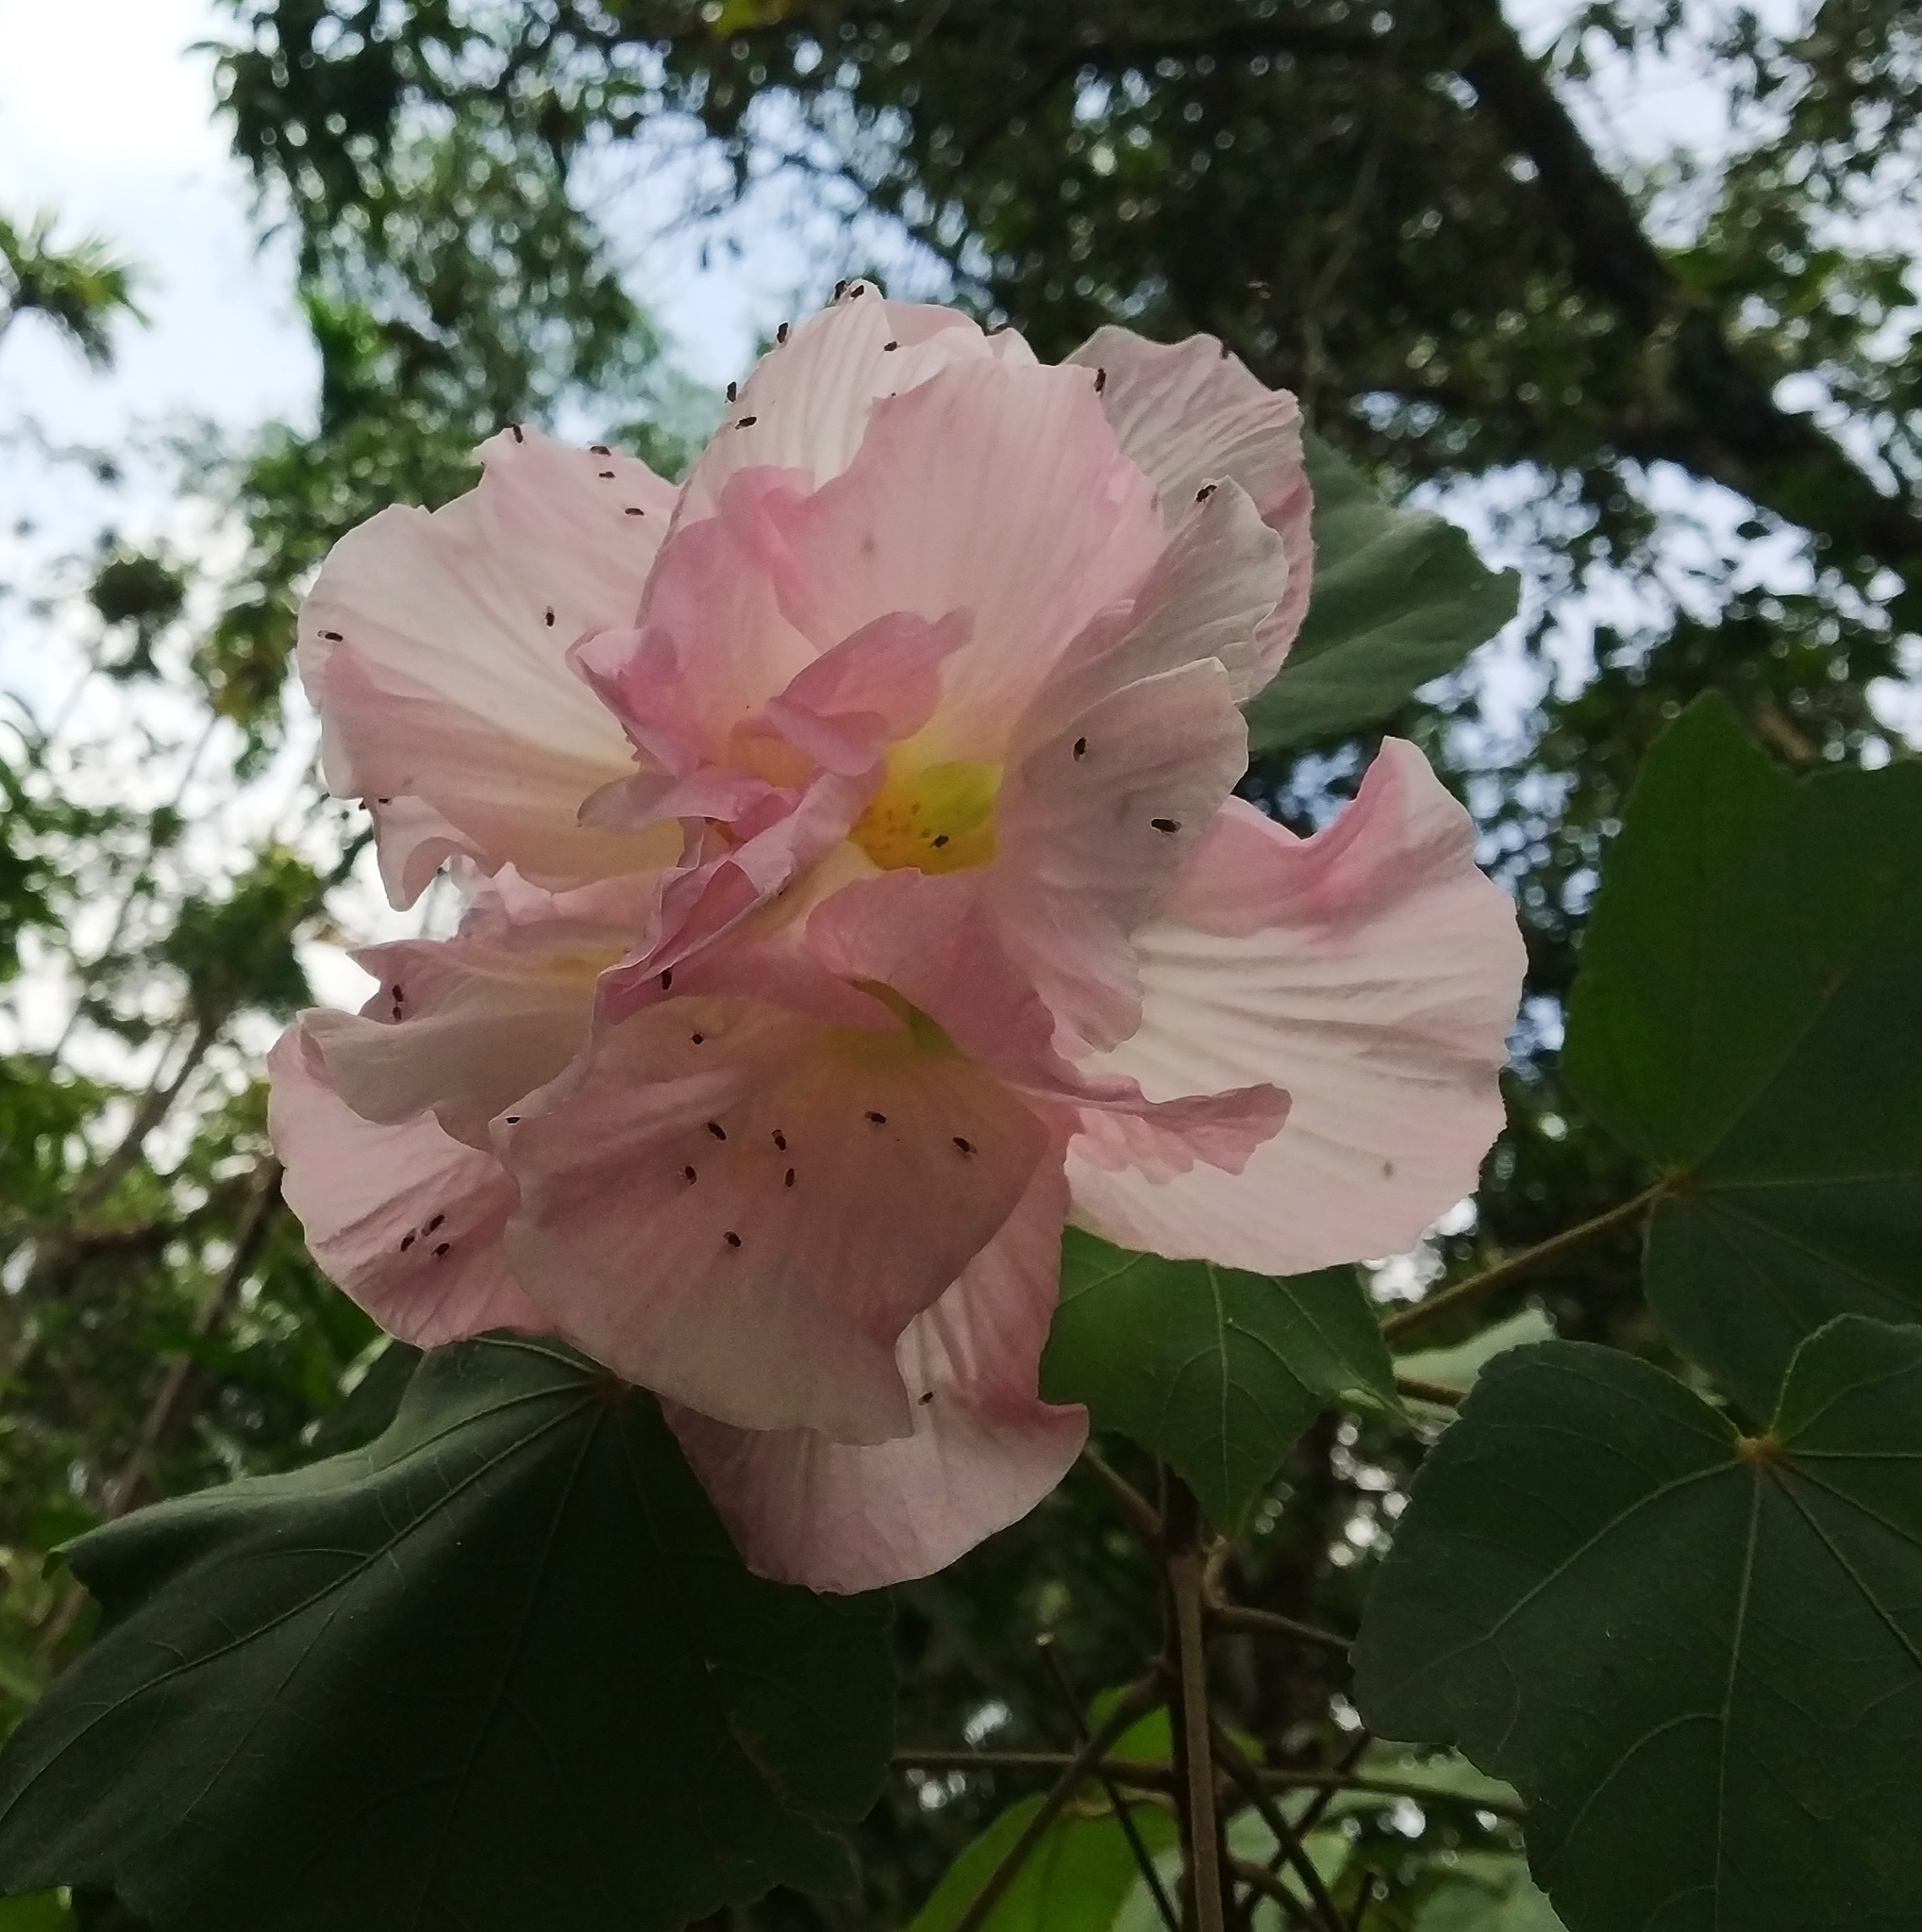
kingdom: Plantae
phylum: Tracheophyta
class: Magnoliopsida
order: Malvales
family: Malvaceae
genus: Hibiscus
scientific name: Hibiscus mutabilis
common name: Dixie rosemallow
